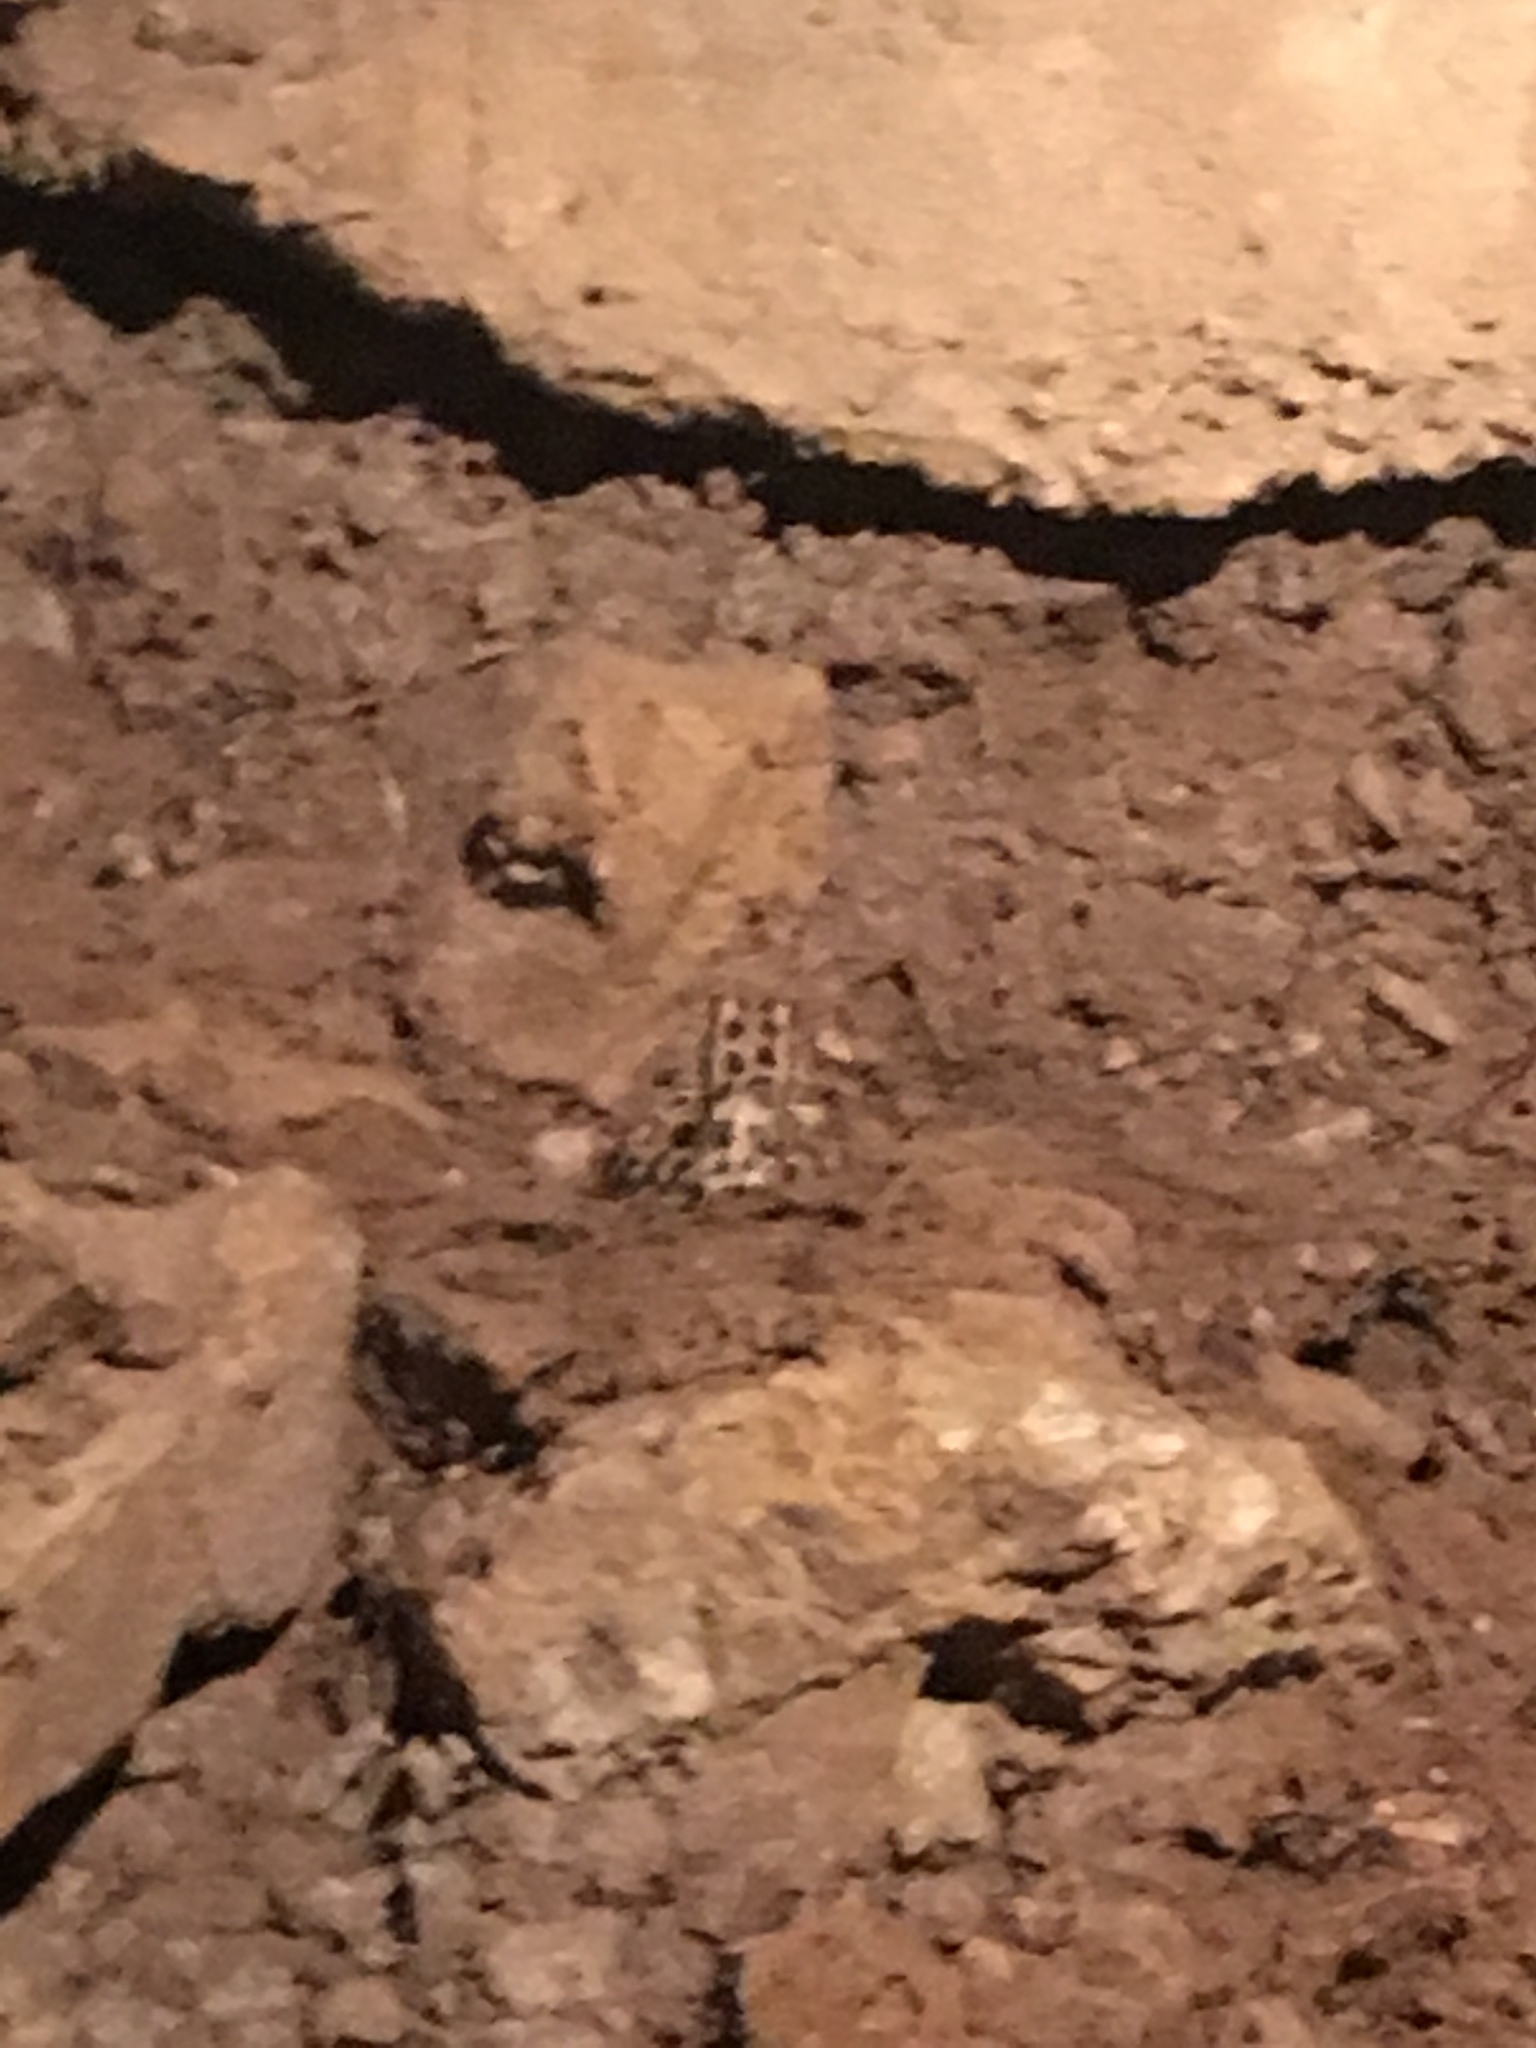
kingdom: Animalia
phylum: Chordata
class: Amphibia
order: Anura
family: Ranidae
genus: Lithobates
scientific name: Lithobates palustris
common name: Pickerel frog
